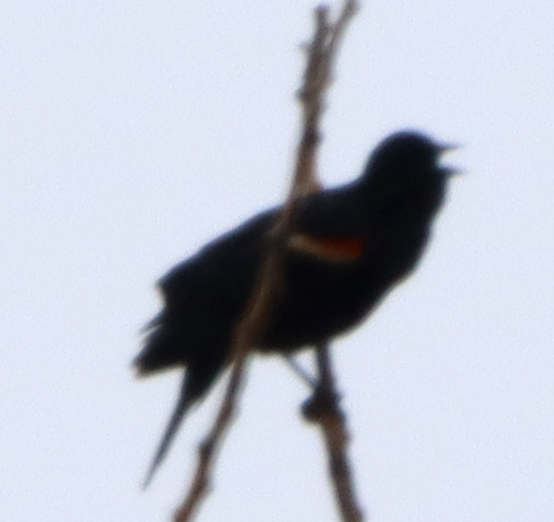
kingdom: Animalia
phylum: Chordata
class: Aves
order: Passeriformes
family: Icteridae
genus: Agelaius
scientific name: Agelaius phoeniceus
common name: Red-winged blackbird
